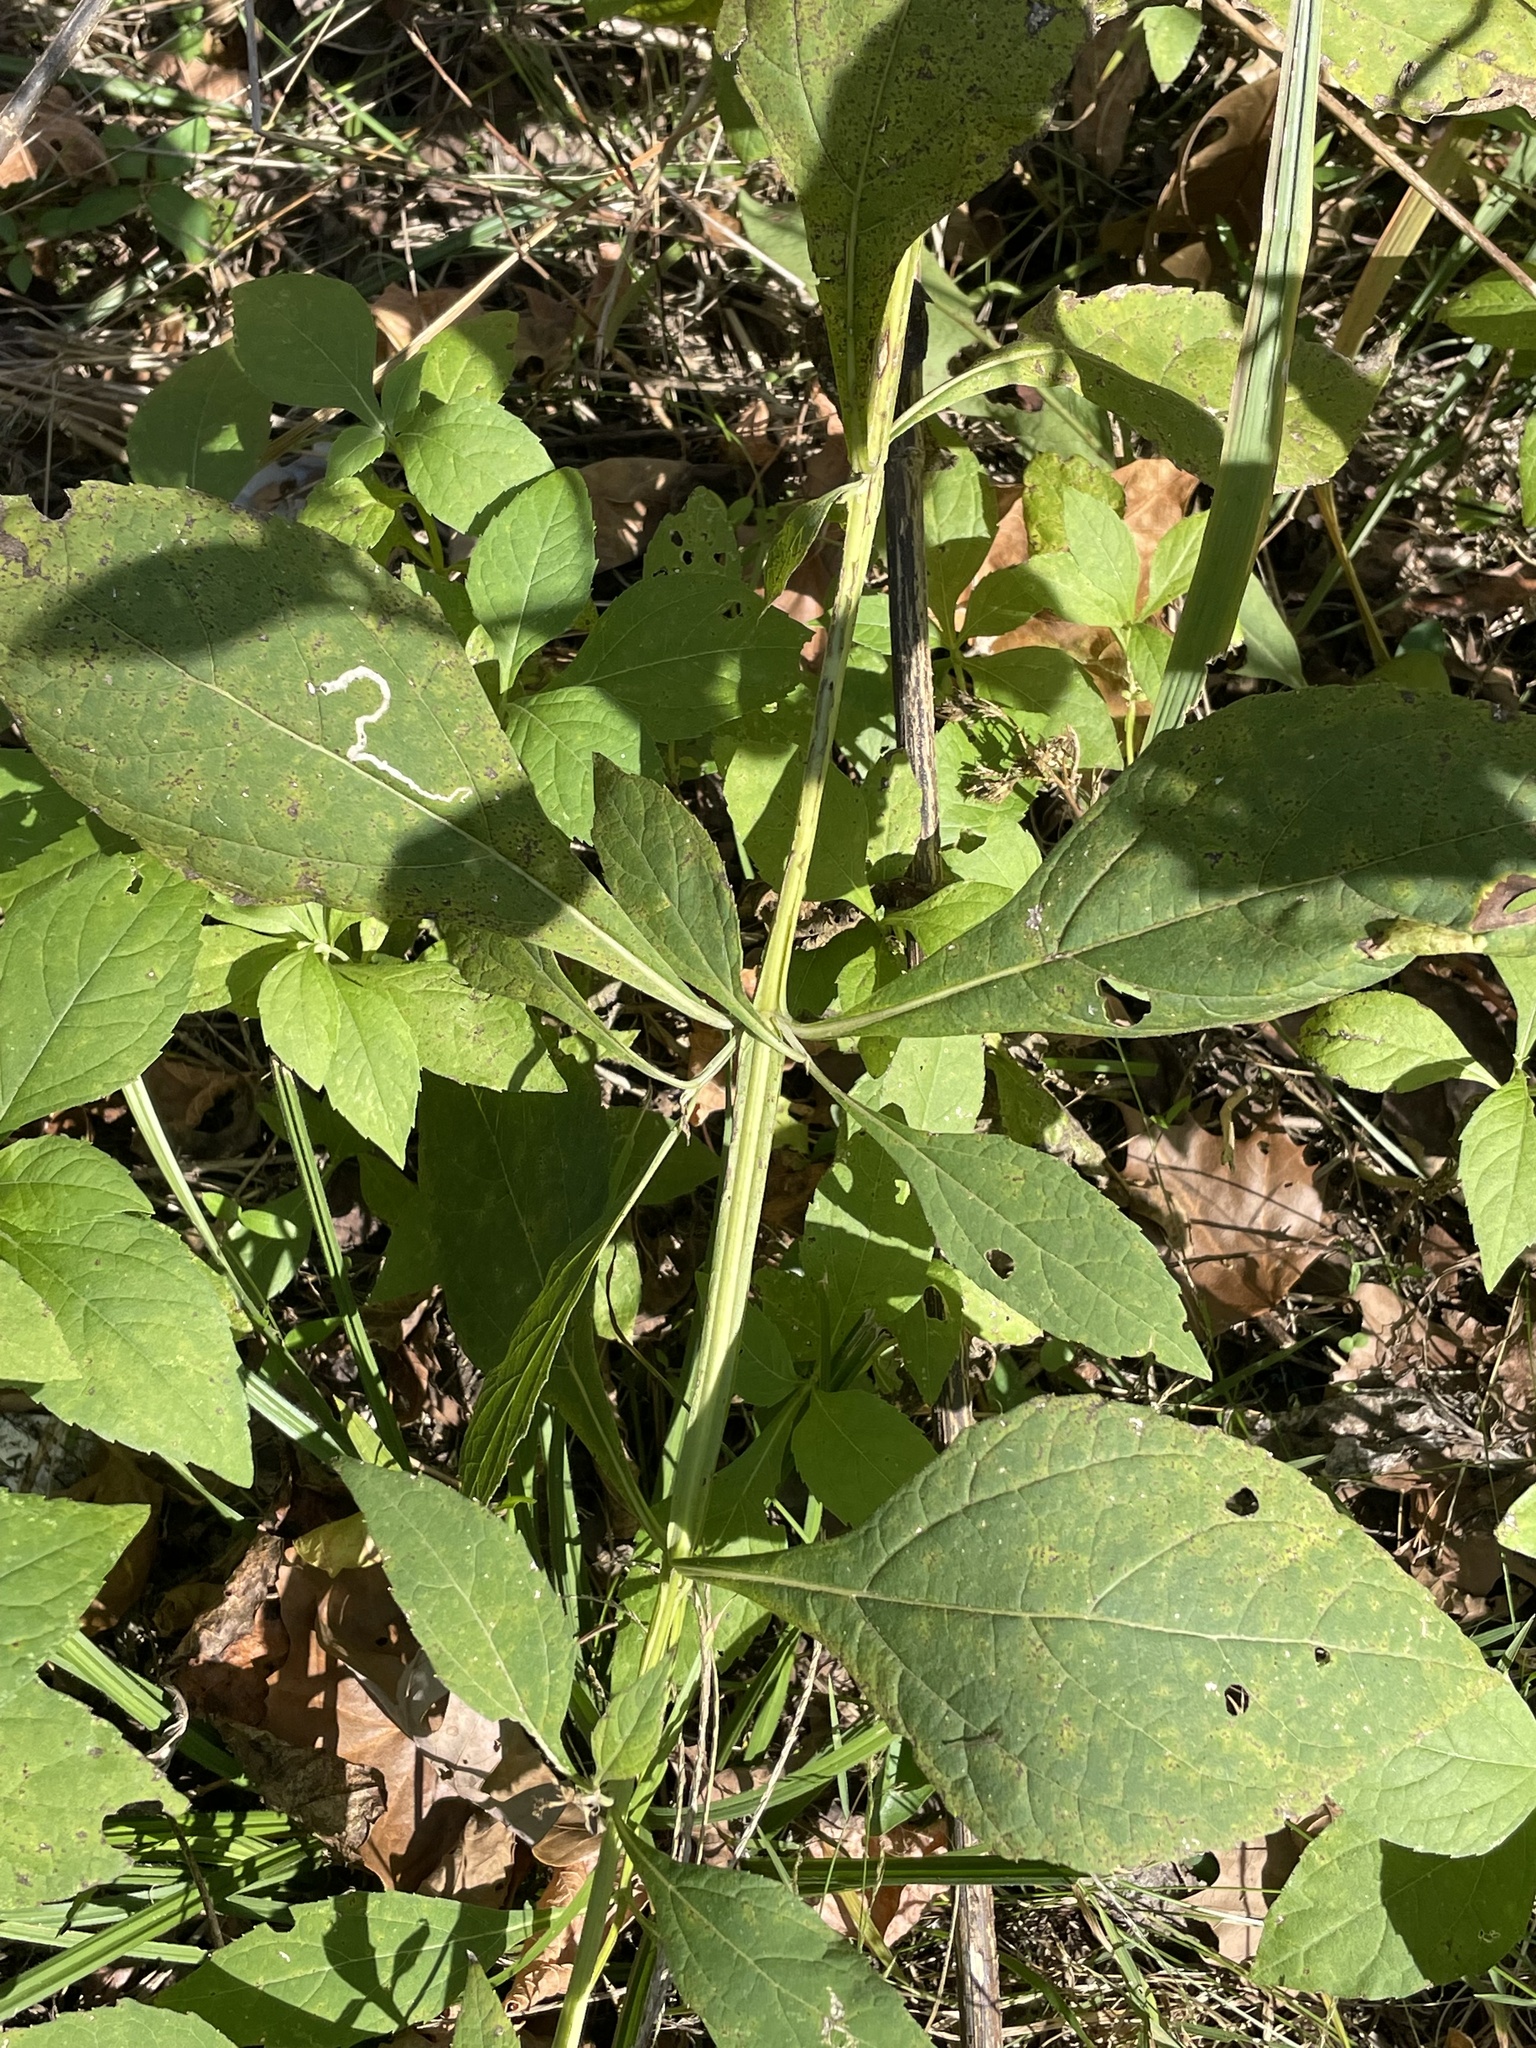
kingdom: Plantae
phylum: Tracheophyta
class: Magnoliopsida
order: Asterales
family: Asteraceae
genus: Verbesina
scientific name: Verbesina occidentalis
